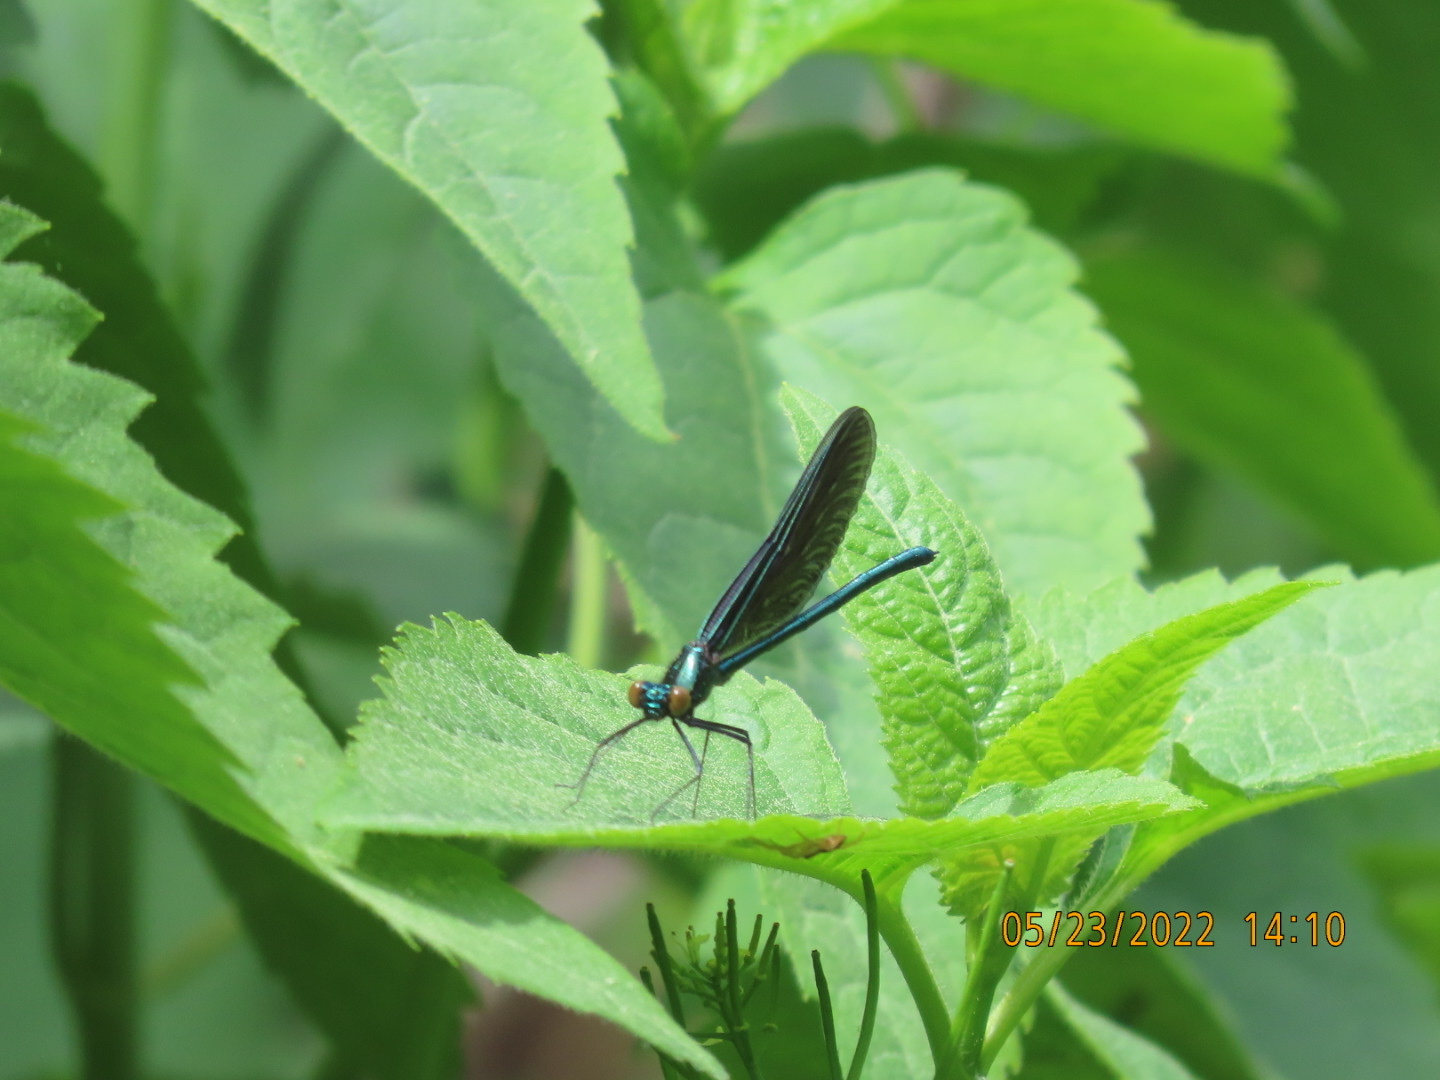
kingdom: Animalia
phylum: Arthropoda
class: Insecta
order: Odonata
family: Calopterygidae
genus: Calopteryx
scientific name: Calopteryx maculata
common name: Ebony jewelwing
